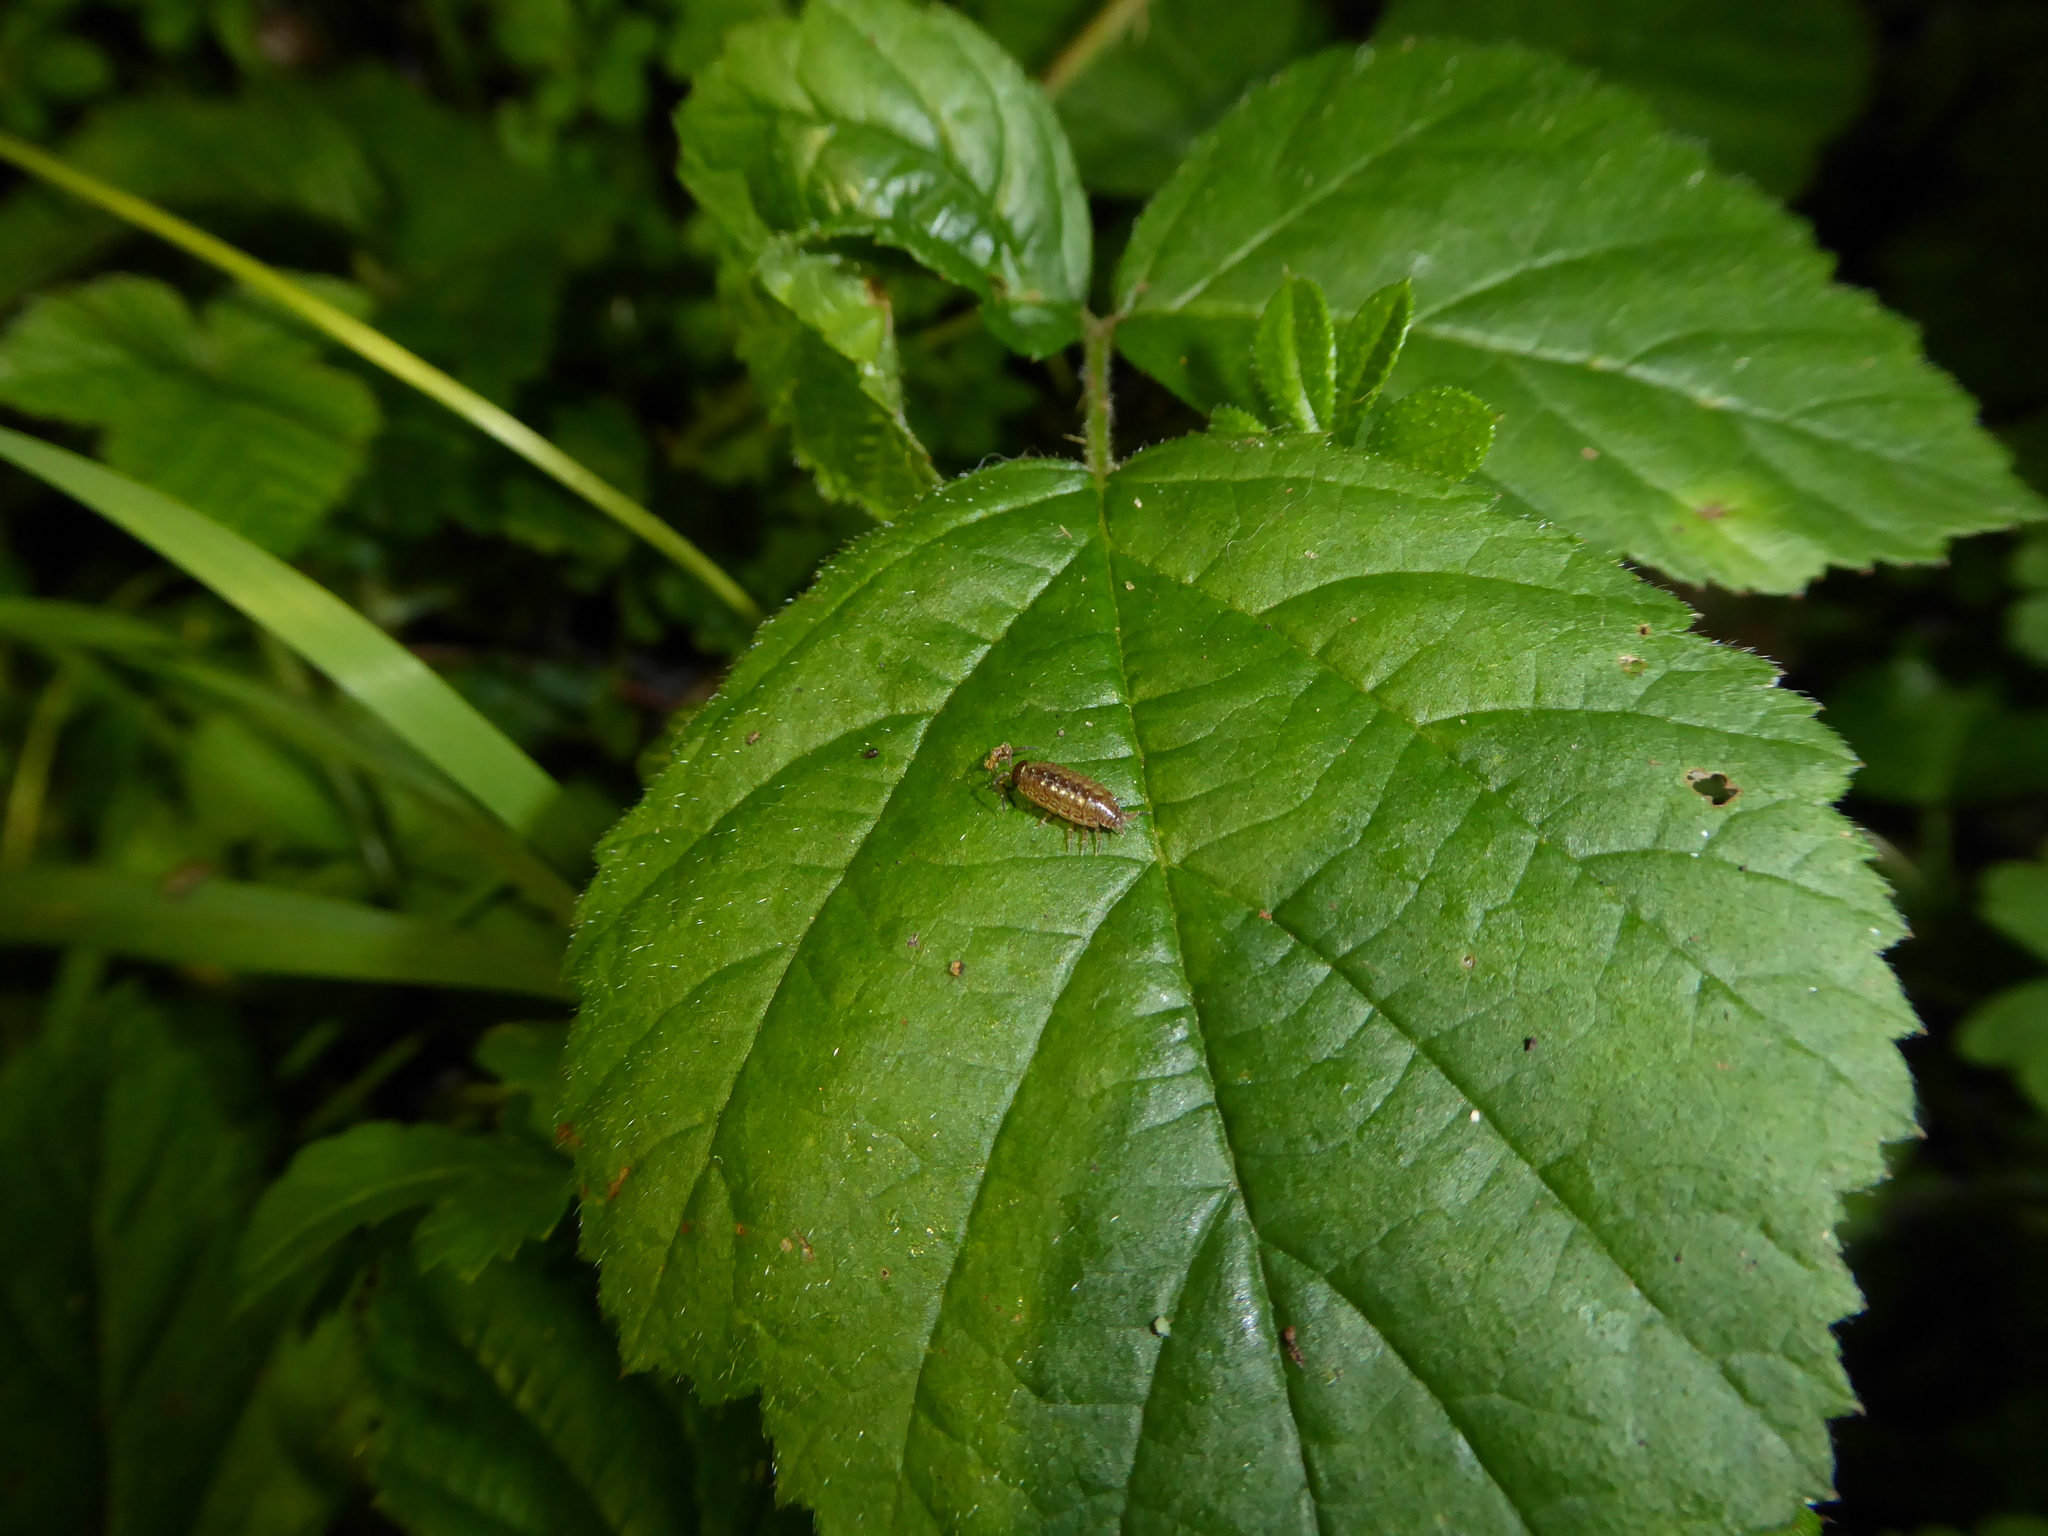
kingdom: Animalia
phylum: Arthropoda
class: Malacostraca
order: Isopoda
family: Philosciidae
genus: Philoscia
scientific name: Philoscia muscorum
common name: Common striped woodlouse
